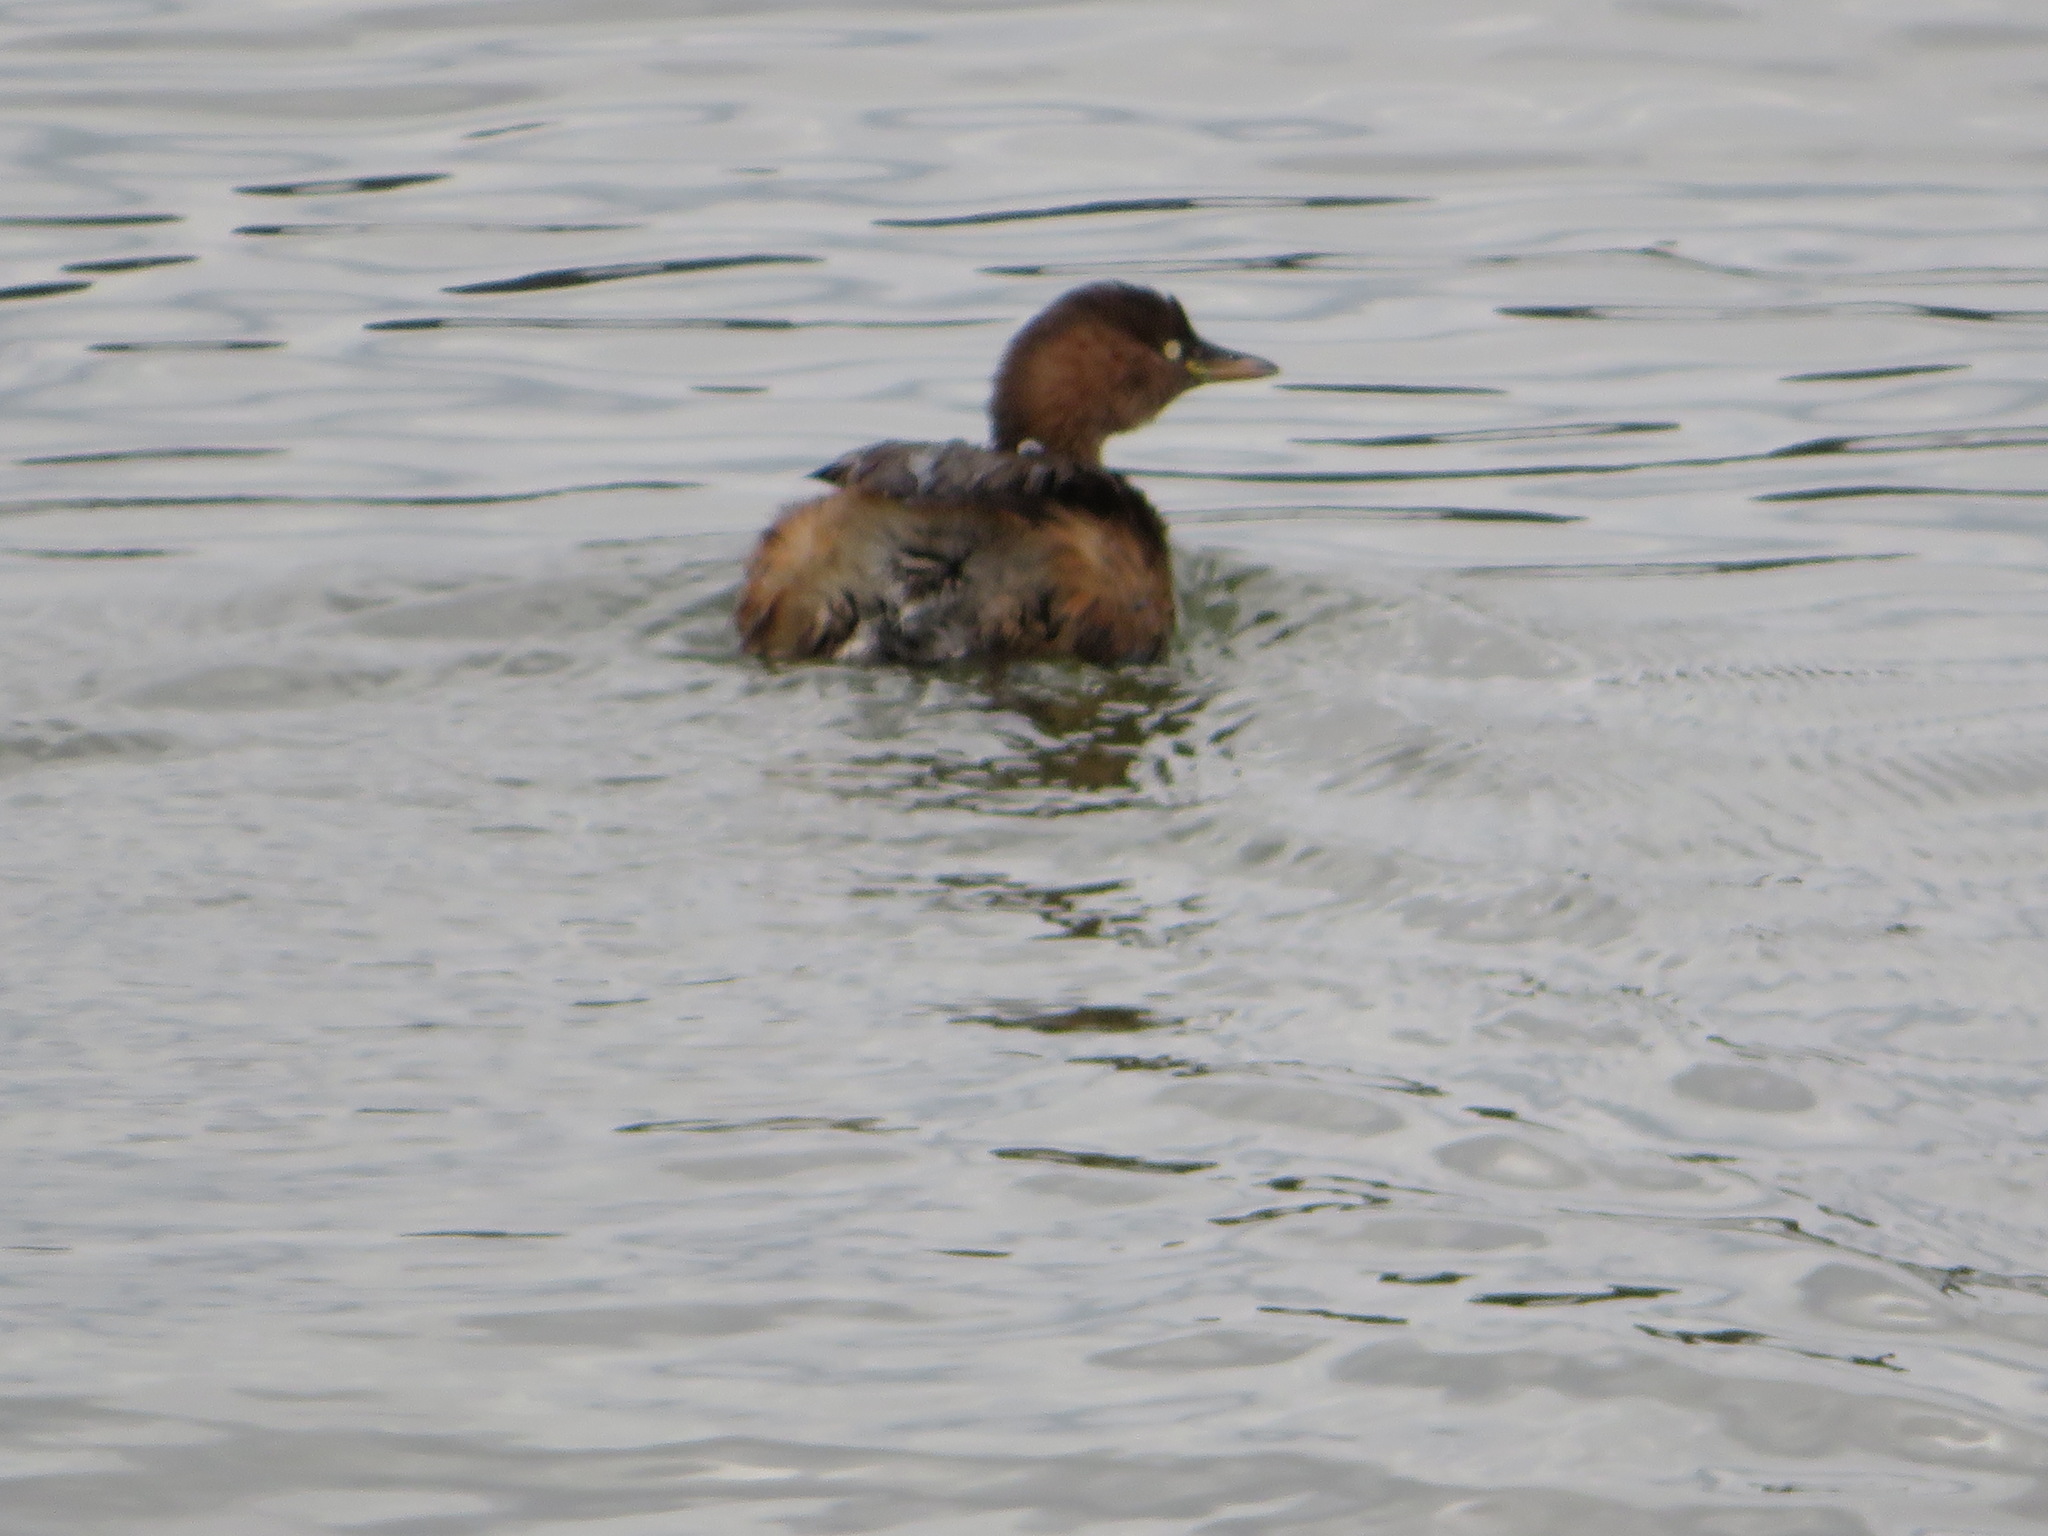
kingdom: Animalia
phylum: Chordata
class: Aves
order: Podicipediformes
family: Podicipedidae
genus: Tachybaptus
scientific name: Tachybaptus ruficollis
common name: Little grebe
